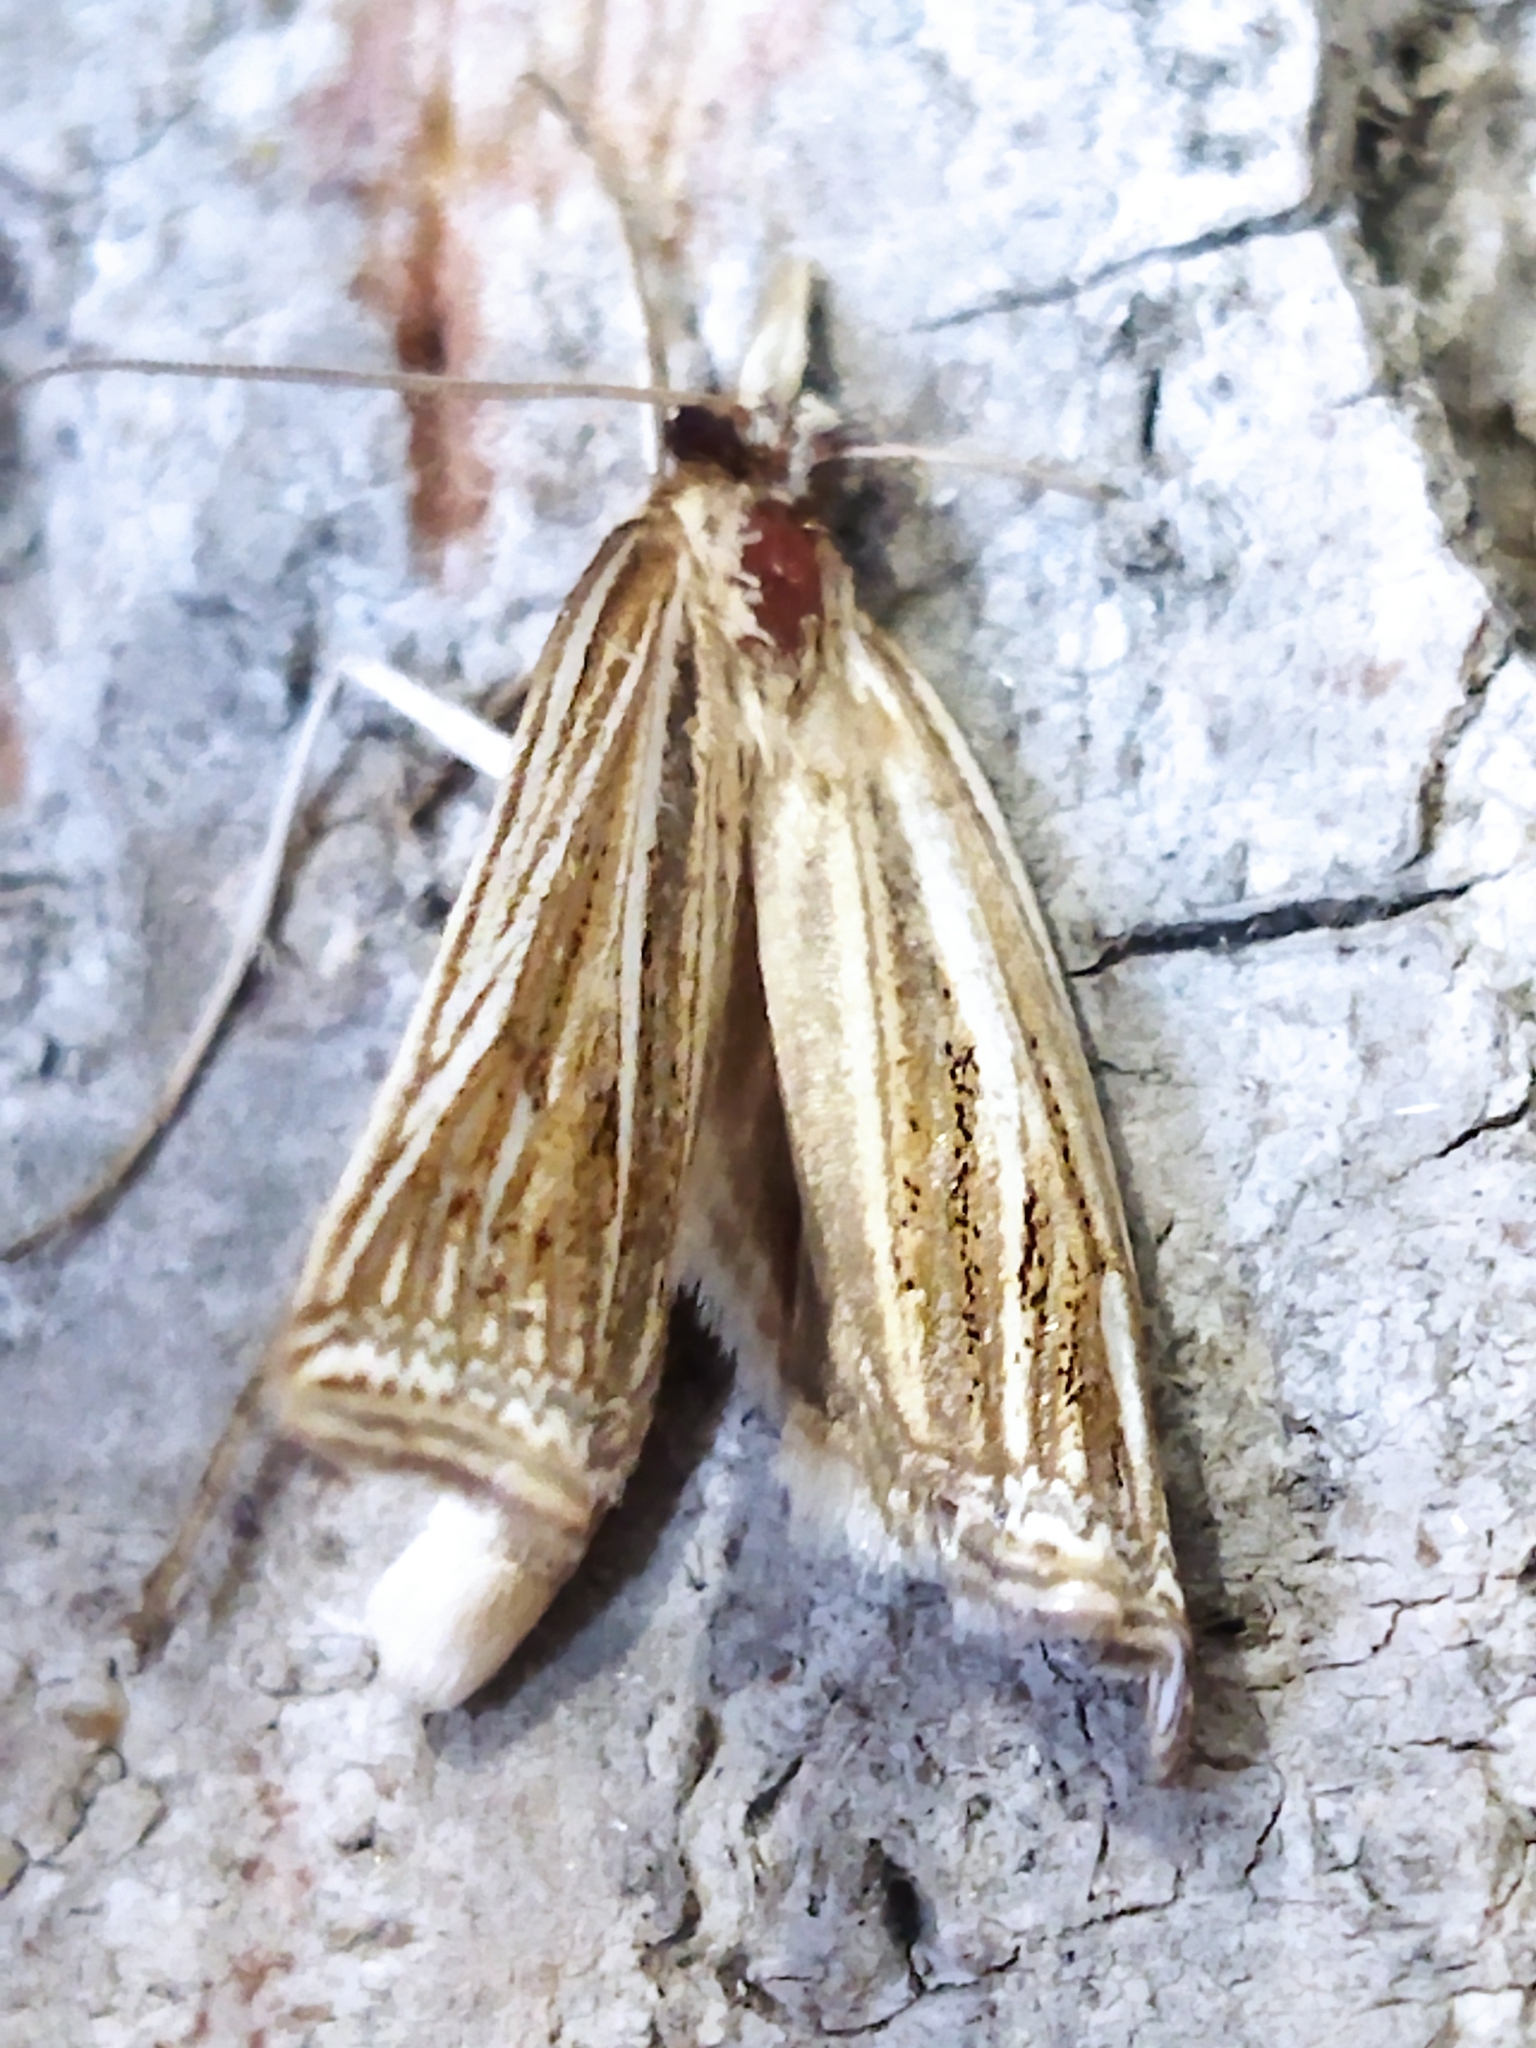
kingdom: Animalia
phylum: Arthropoda
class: Insecta
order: Lepidoptera
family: Crambidae
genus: Ancylolomia
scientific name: Ancylolomia
